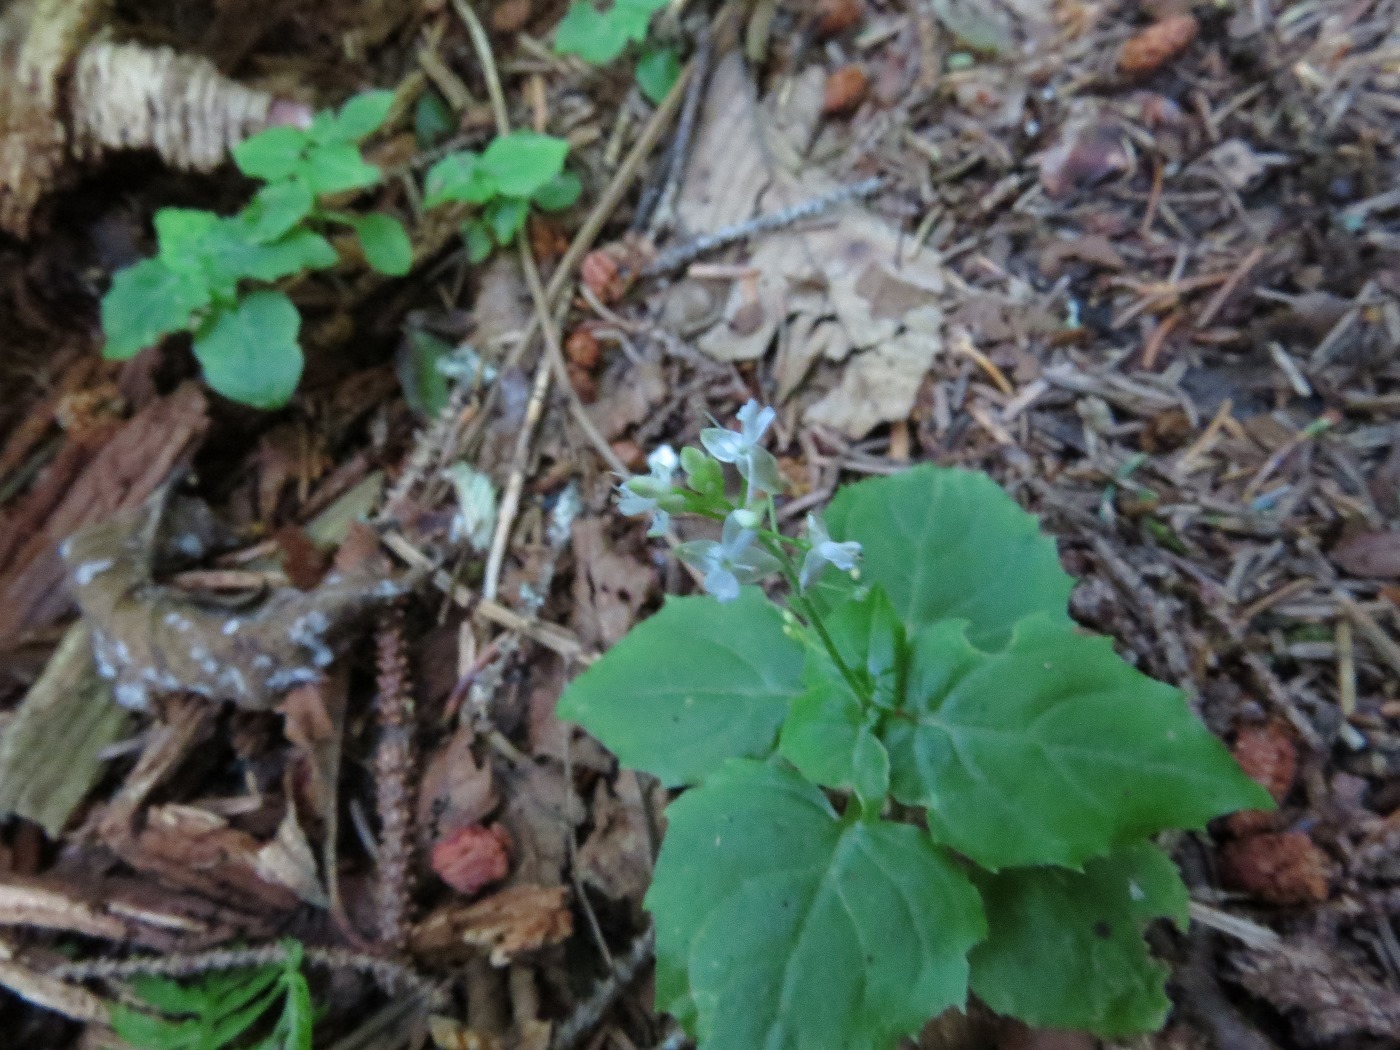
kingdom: Plantae
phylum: Tracheophyta
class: Magnoliopsida
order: Myrtales
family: Onagraceae
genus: Circaea
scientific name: Circaea alpina
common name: Alpine enchanter's-nightshade
